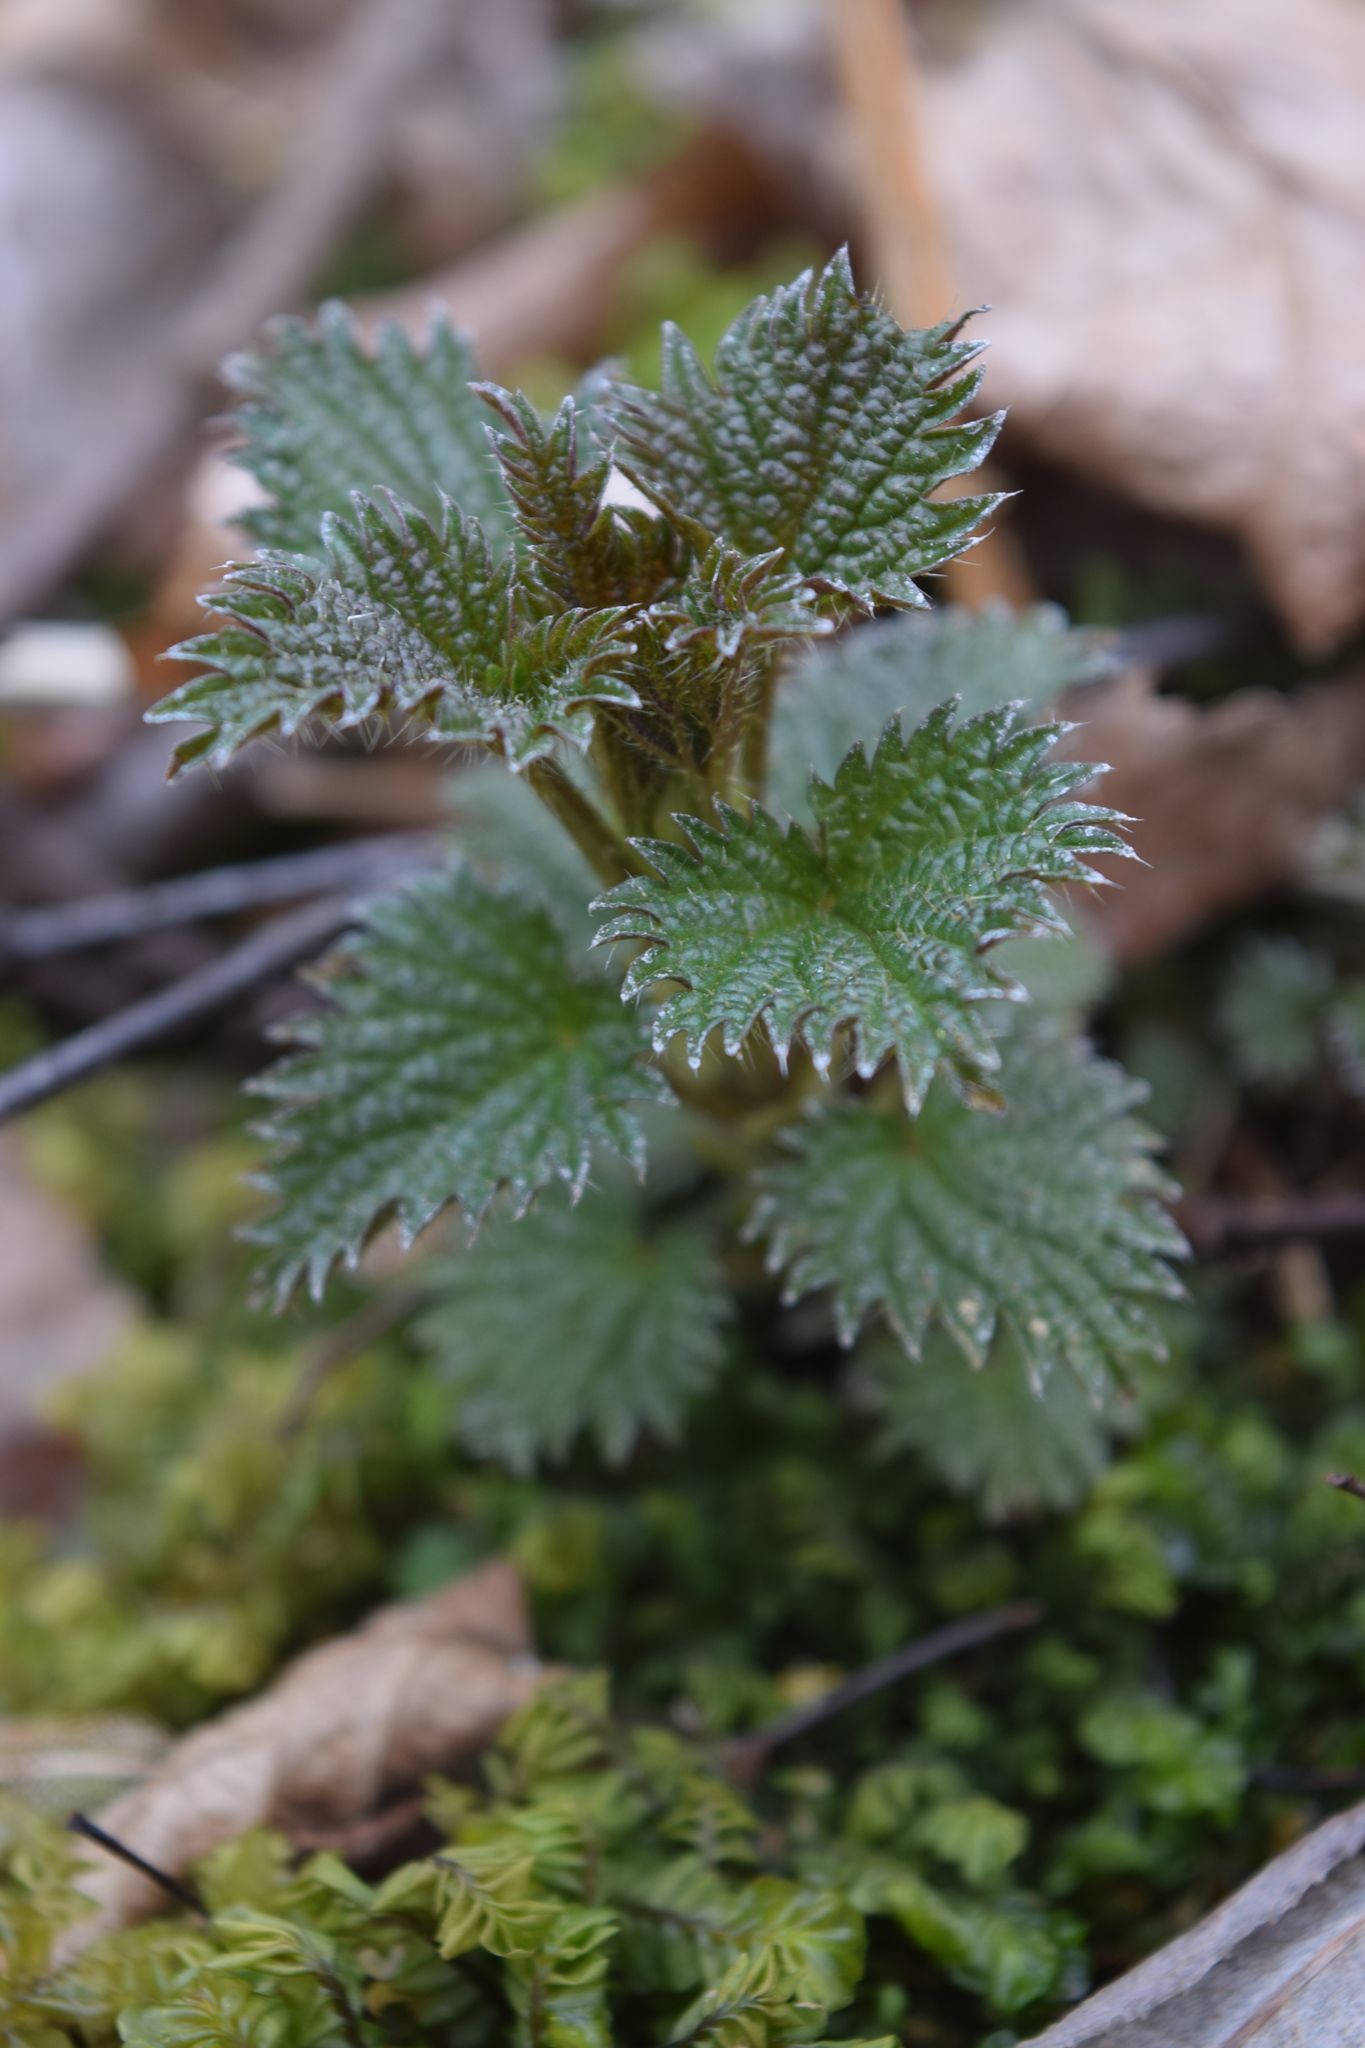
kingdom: Plantae
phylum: Tracheophyta
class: Magnoliopsida
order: Rosales
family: Urticaceae
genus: Urtica
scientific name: Urtica dioica
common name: Common nettle
